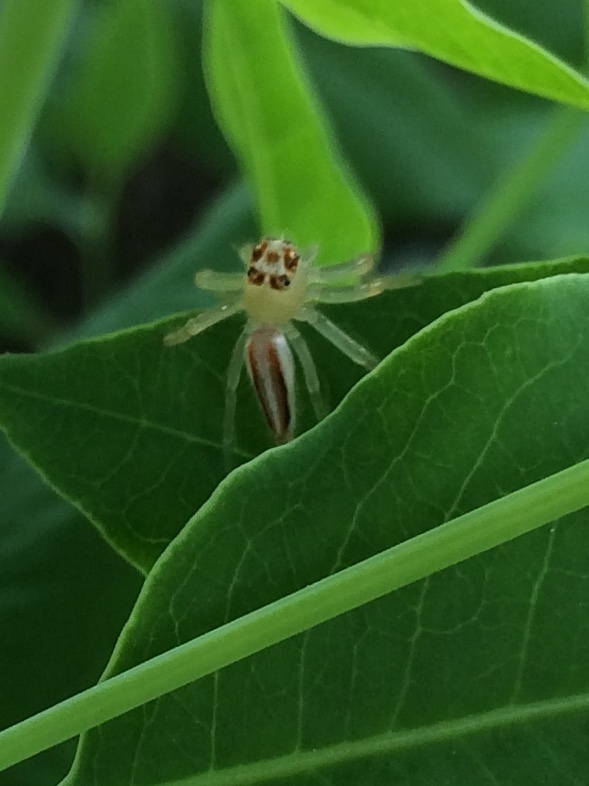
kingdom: Animalia
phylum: Arthropoda
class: Arachnida
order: Araneae
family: Salticidae
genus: Telamonia
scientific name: Telamonia dimidiata
